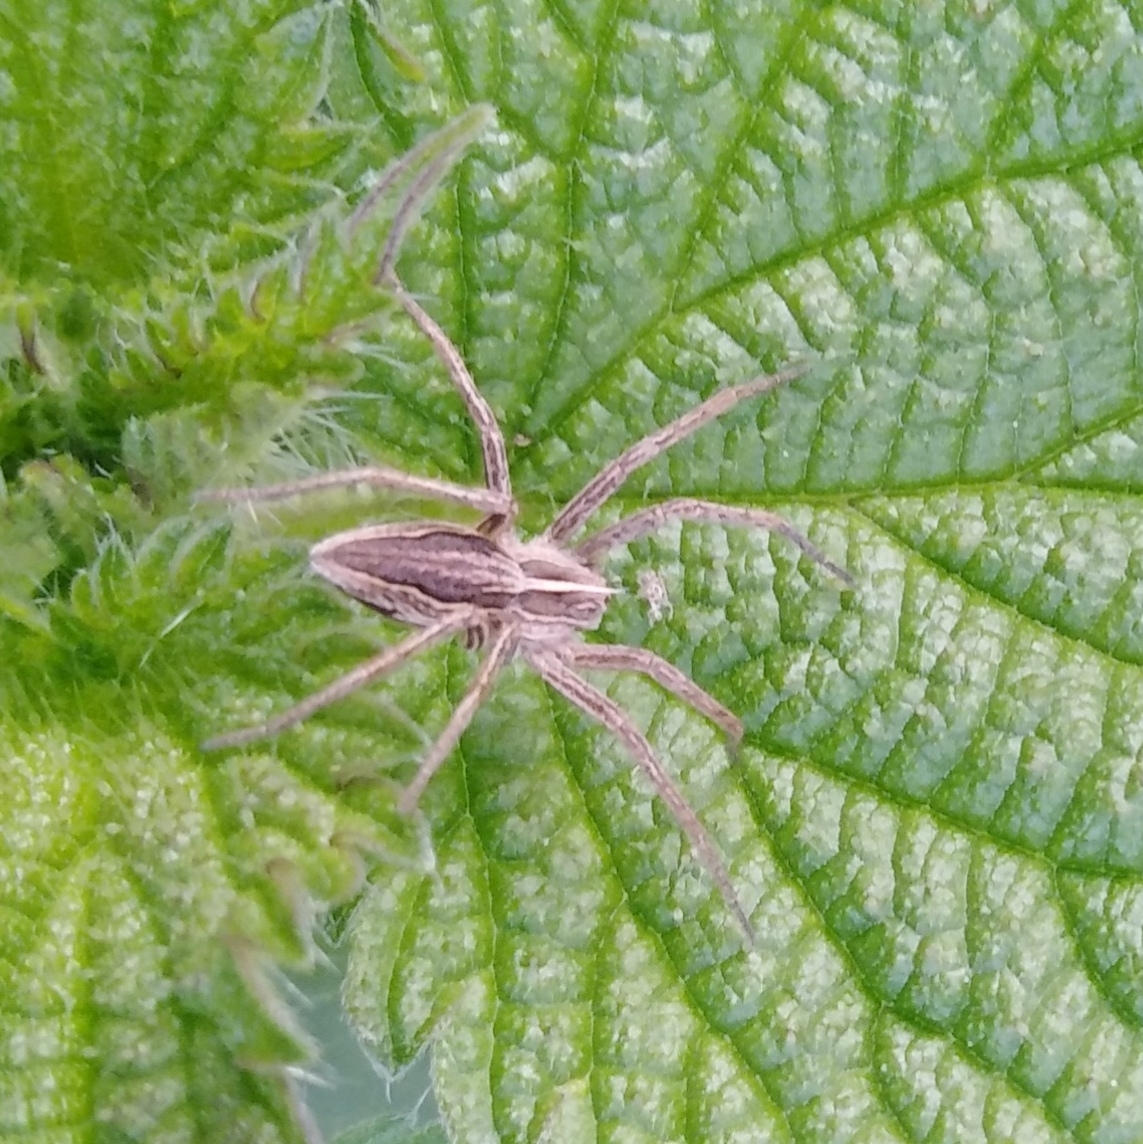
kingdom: Animalia
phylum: Arthropoda
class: Arachnida
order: Araneae
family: Pisauridae
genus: Pisaura
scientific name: Pisaura mirabilis
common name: Tent spider
